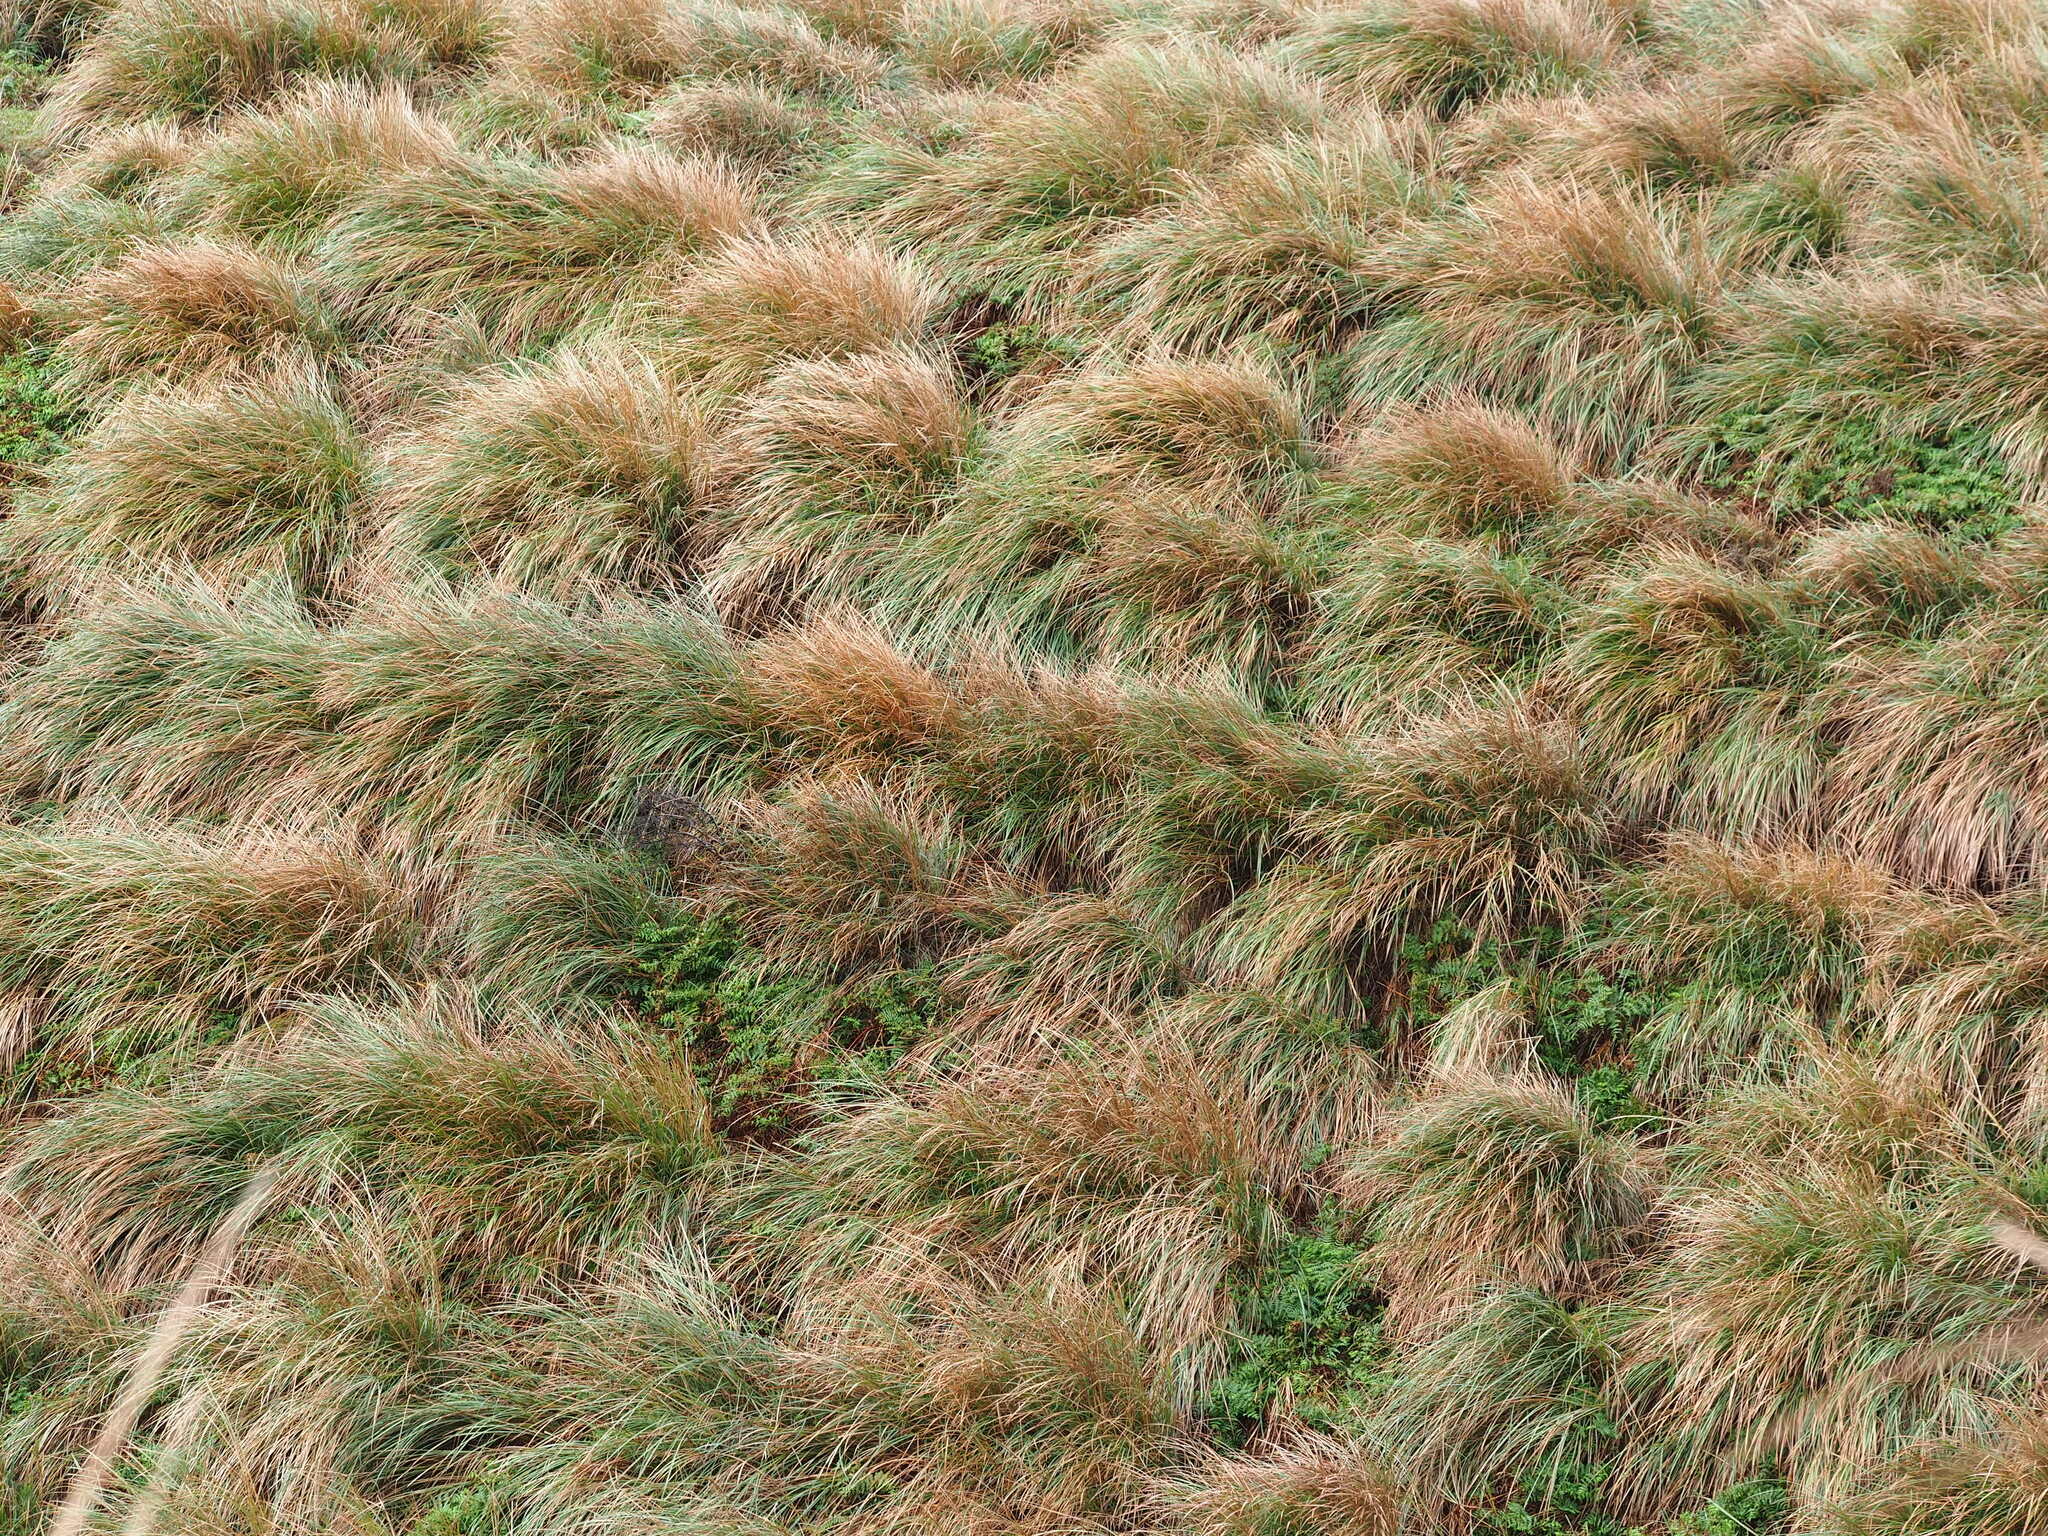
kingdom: Plantae
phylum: Tracheophyta
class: Liliopsida
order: Poales
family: Poaceae
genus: Miscanthus
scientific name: Miscanthus sinensis
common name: Chinese silvergrass
